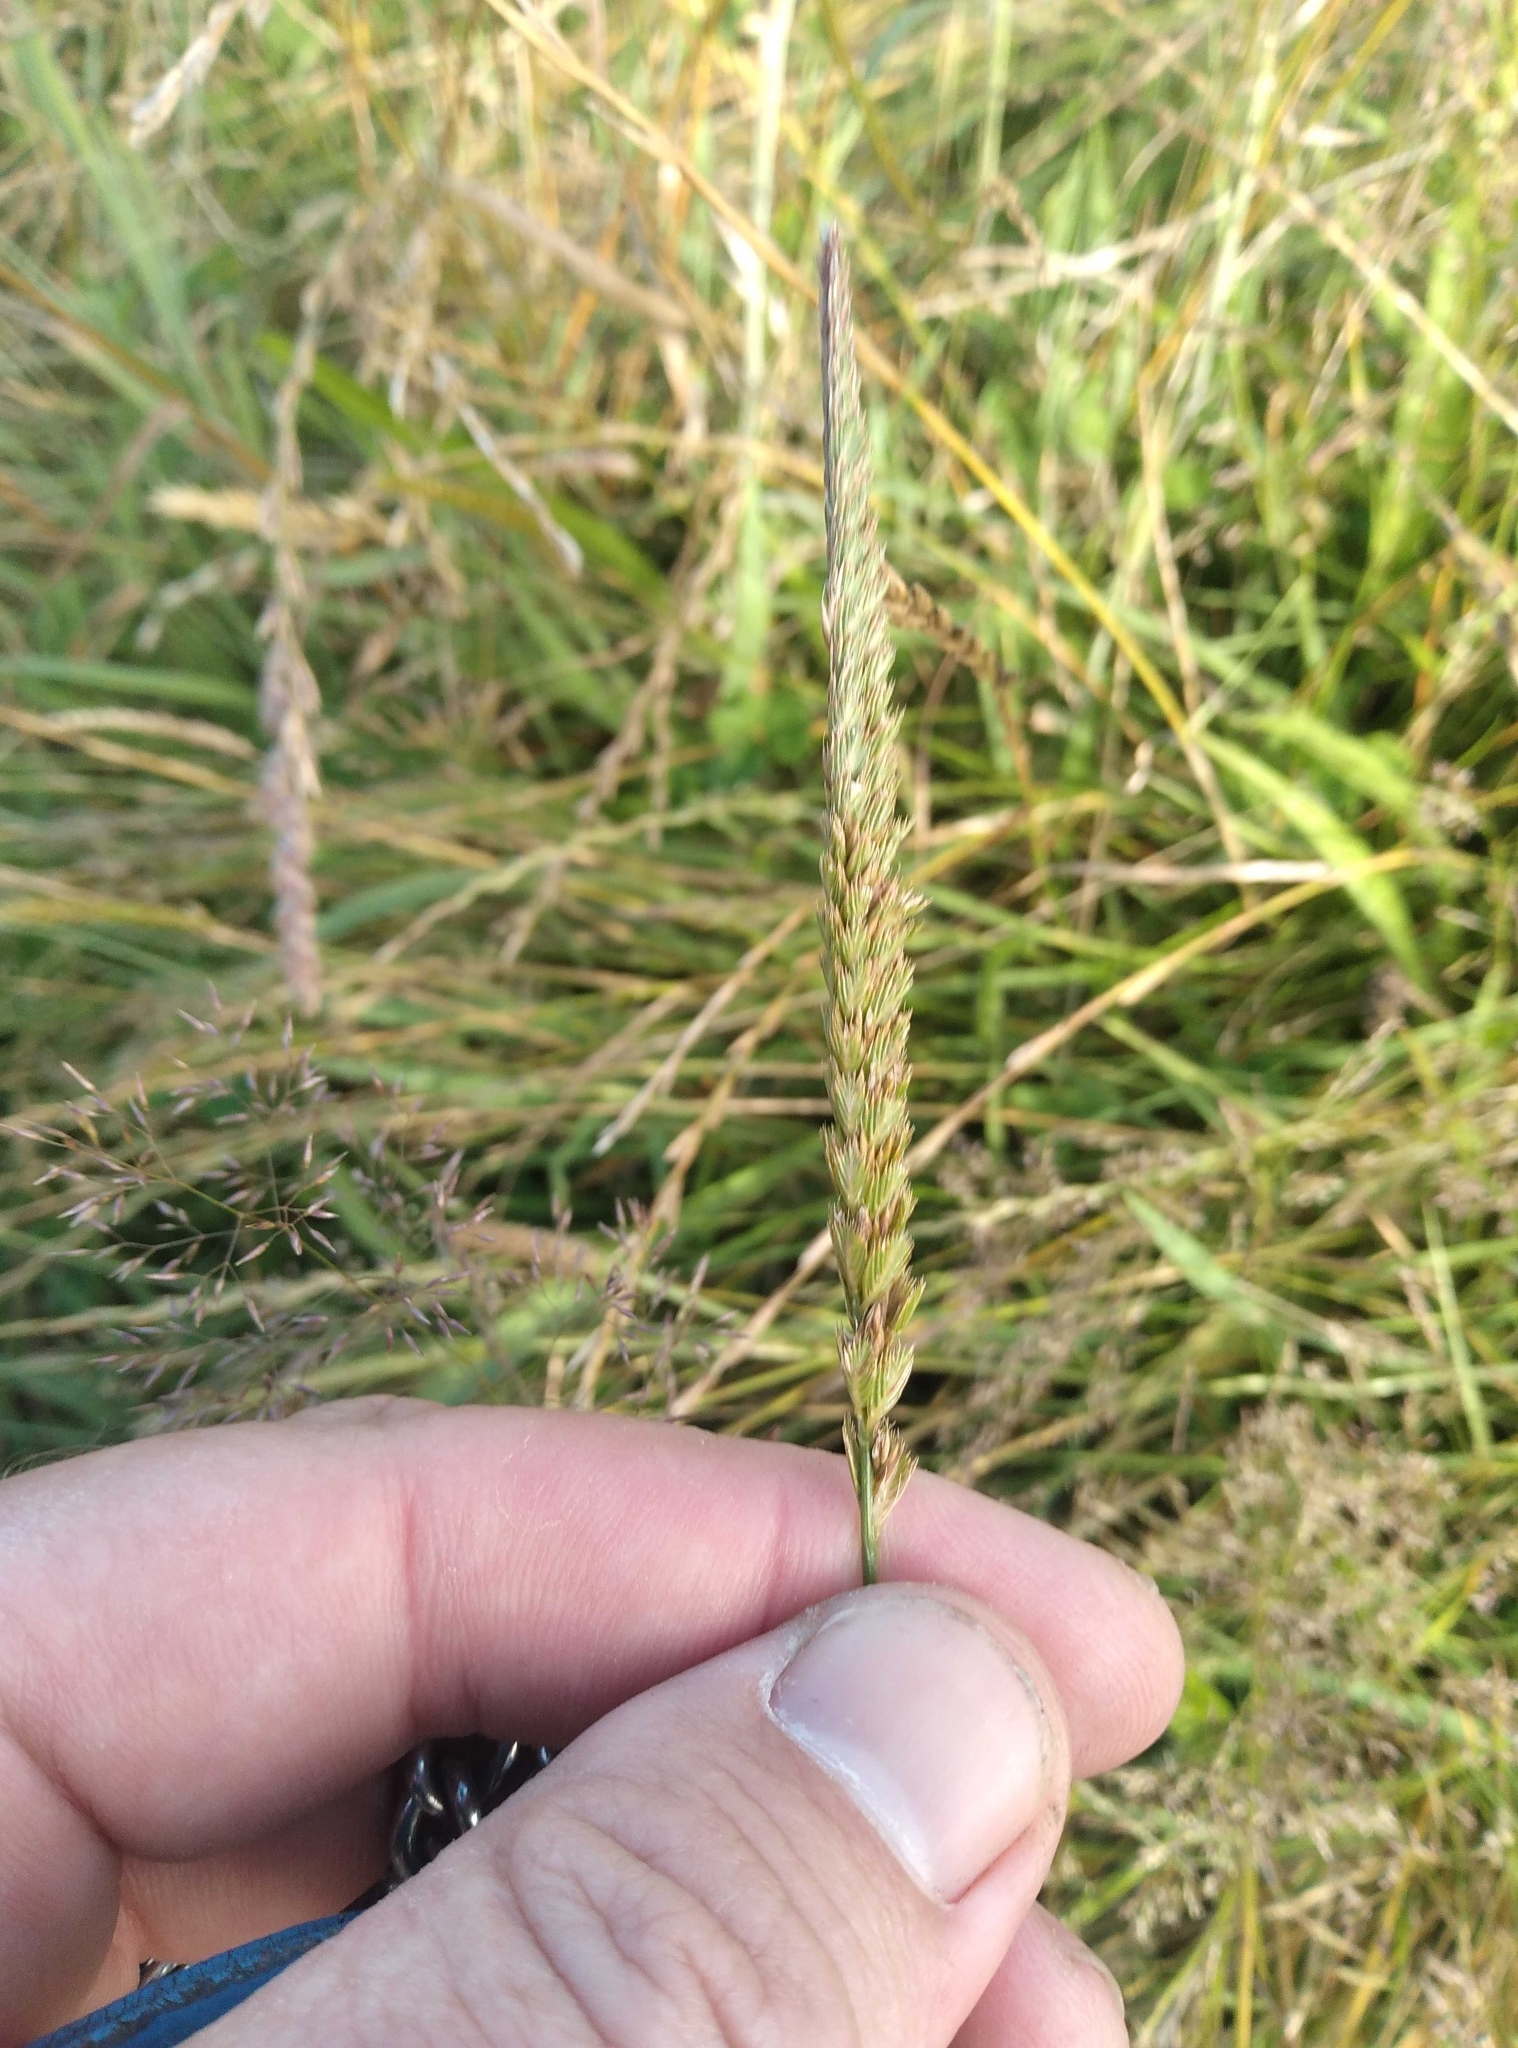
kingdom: Plantae
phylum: Tracheophyta
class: Liliopsida
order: Poales
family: Poaceae
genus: Cynosurus
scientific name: Cynosurus cristatus
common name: Crested dog's-tail
